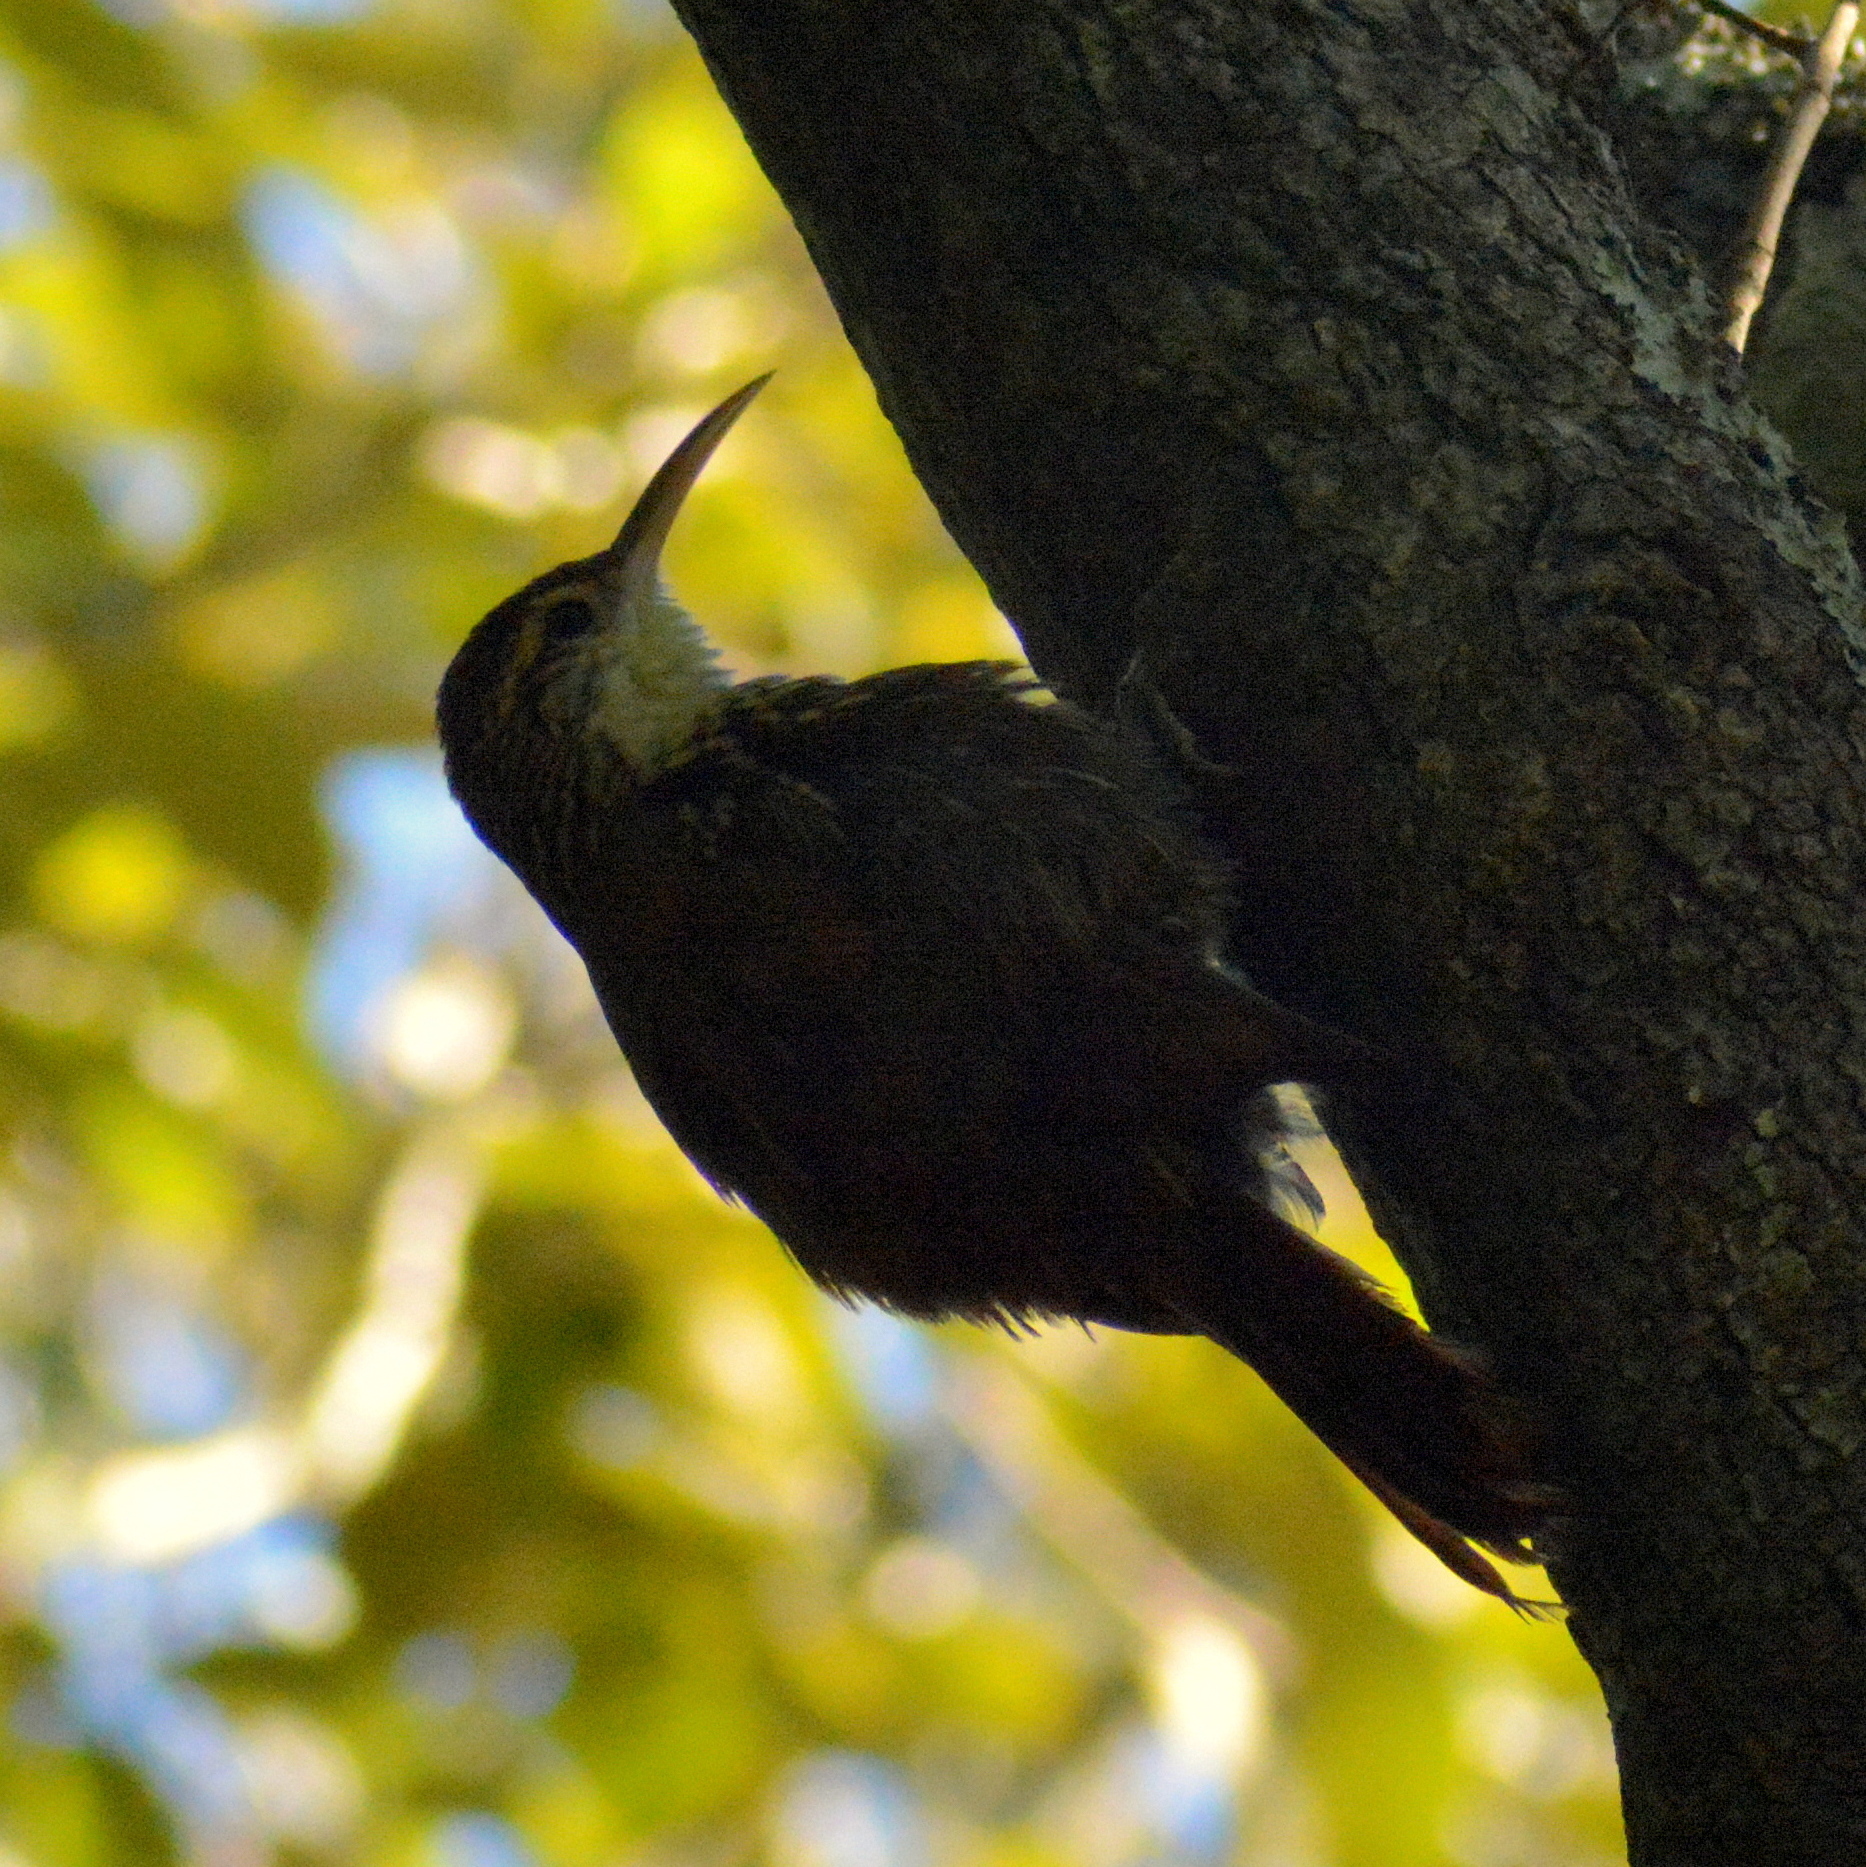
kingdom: Animalia
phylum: Chordata
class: Aves
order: Passeriformes
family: Furnariidae
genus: Lepidocolaptes
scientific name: Lepidocolaptes falcinellus
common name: Scalloped woodcreeper
